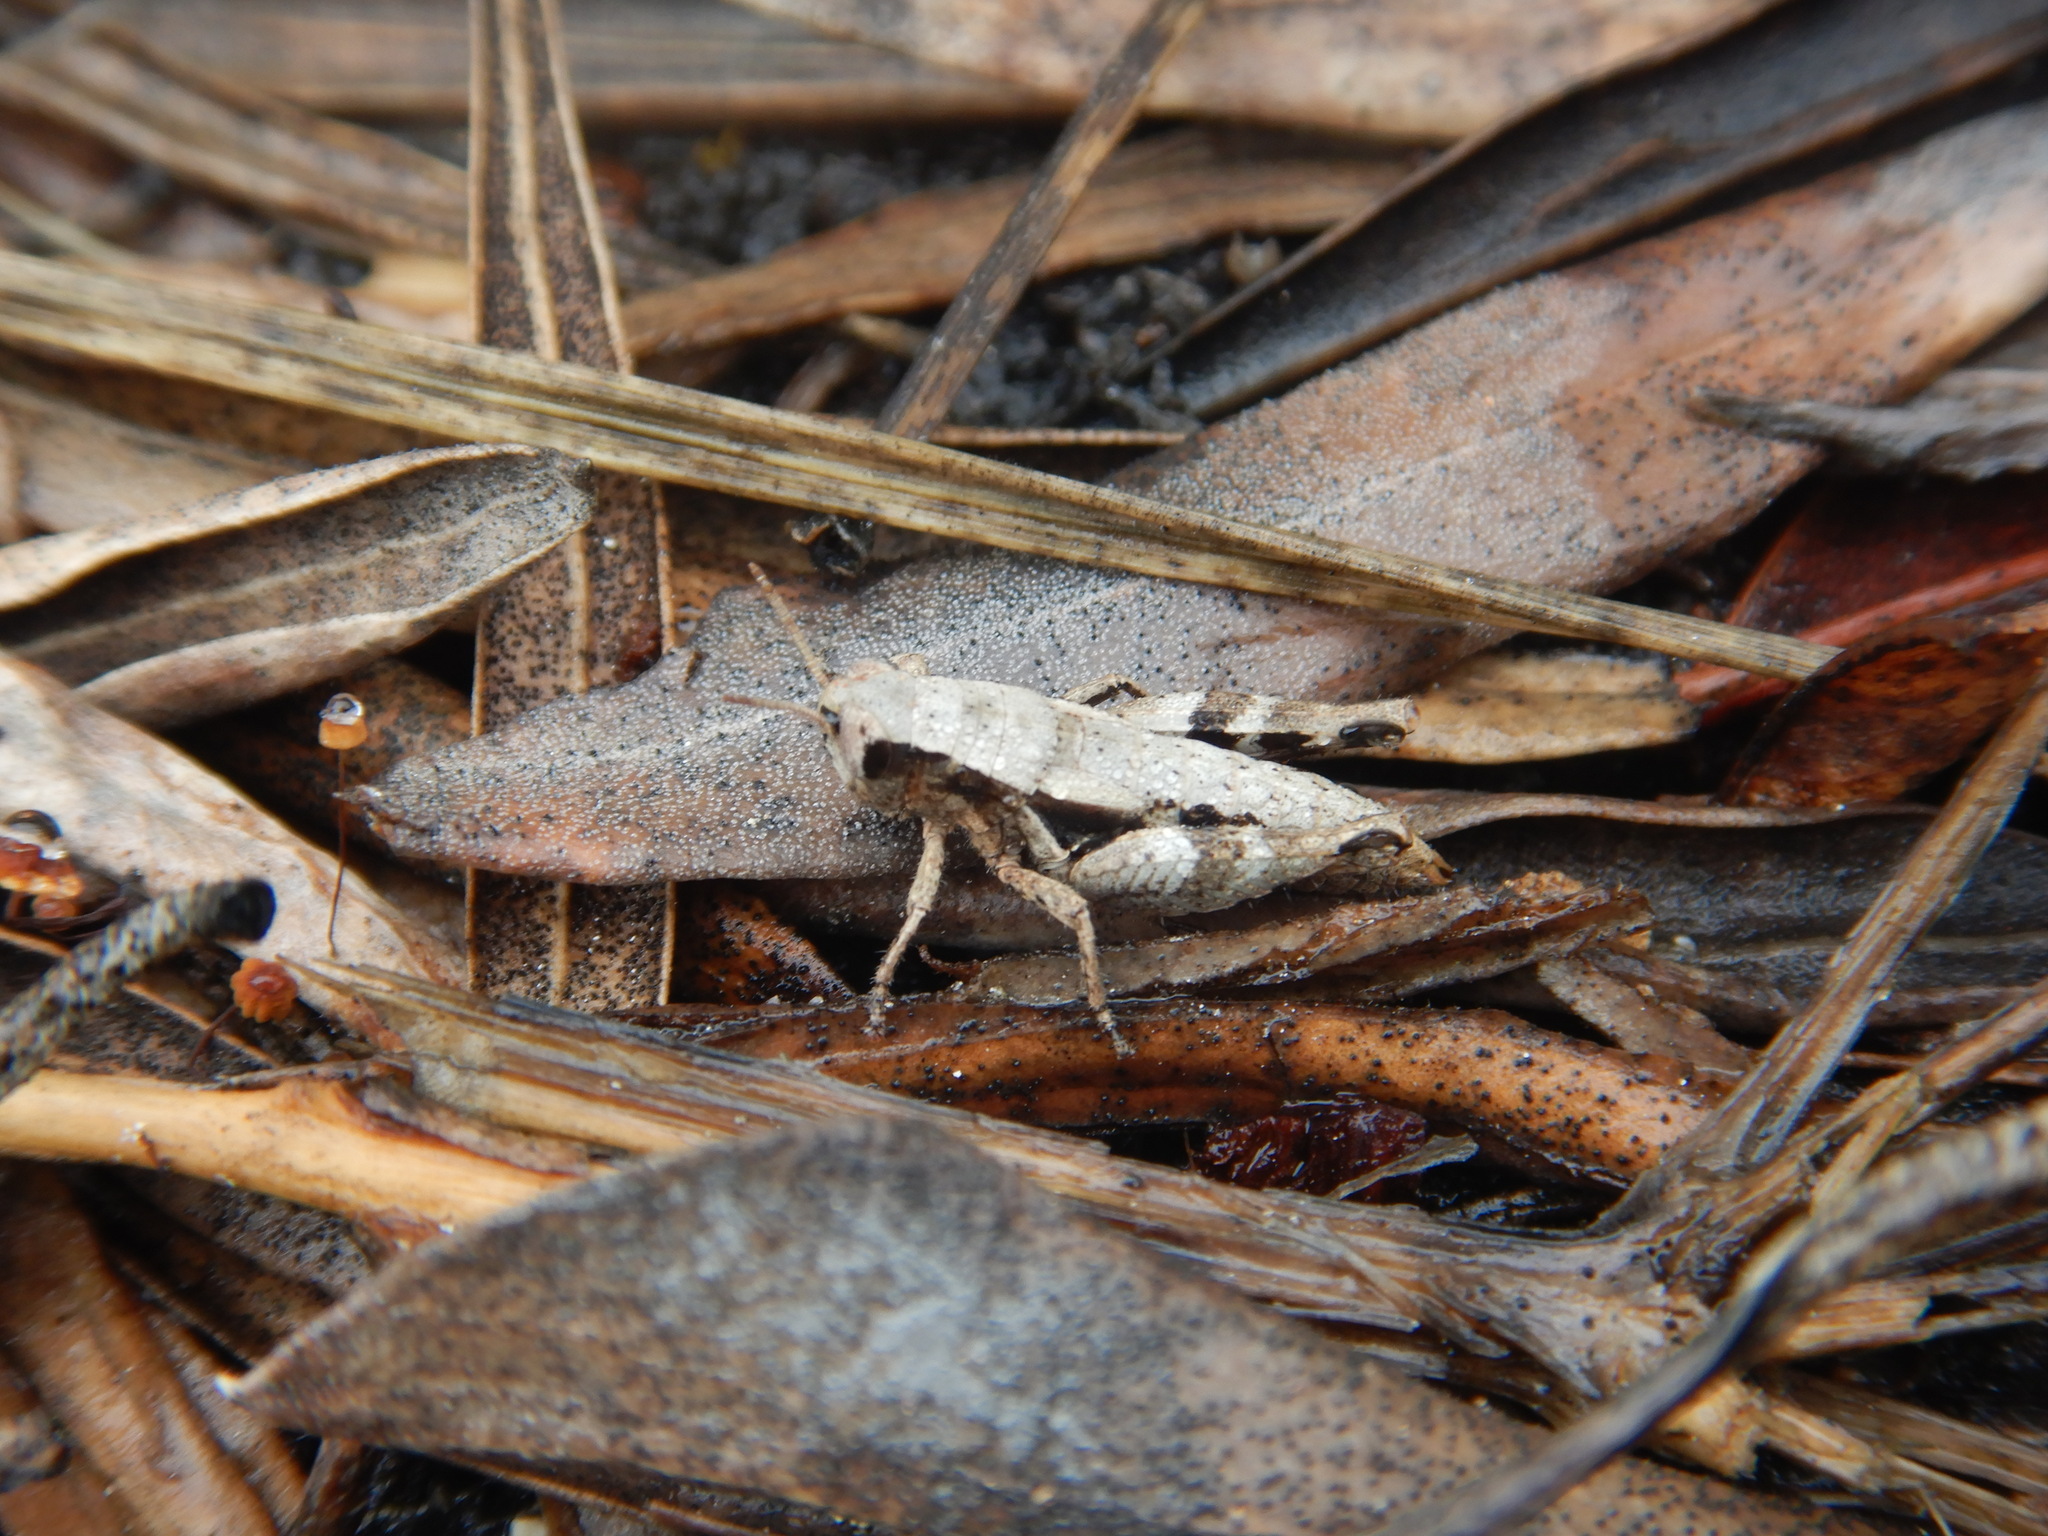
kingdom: Animalia
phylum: Arthropoda
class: Insecta
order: Orthoptera
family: Acrididae
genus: Pezotettix
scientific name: Pezotettix giornae
